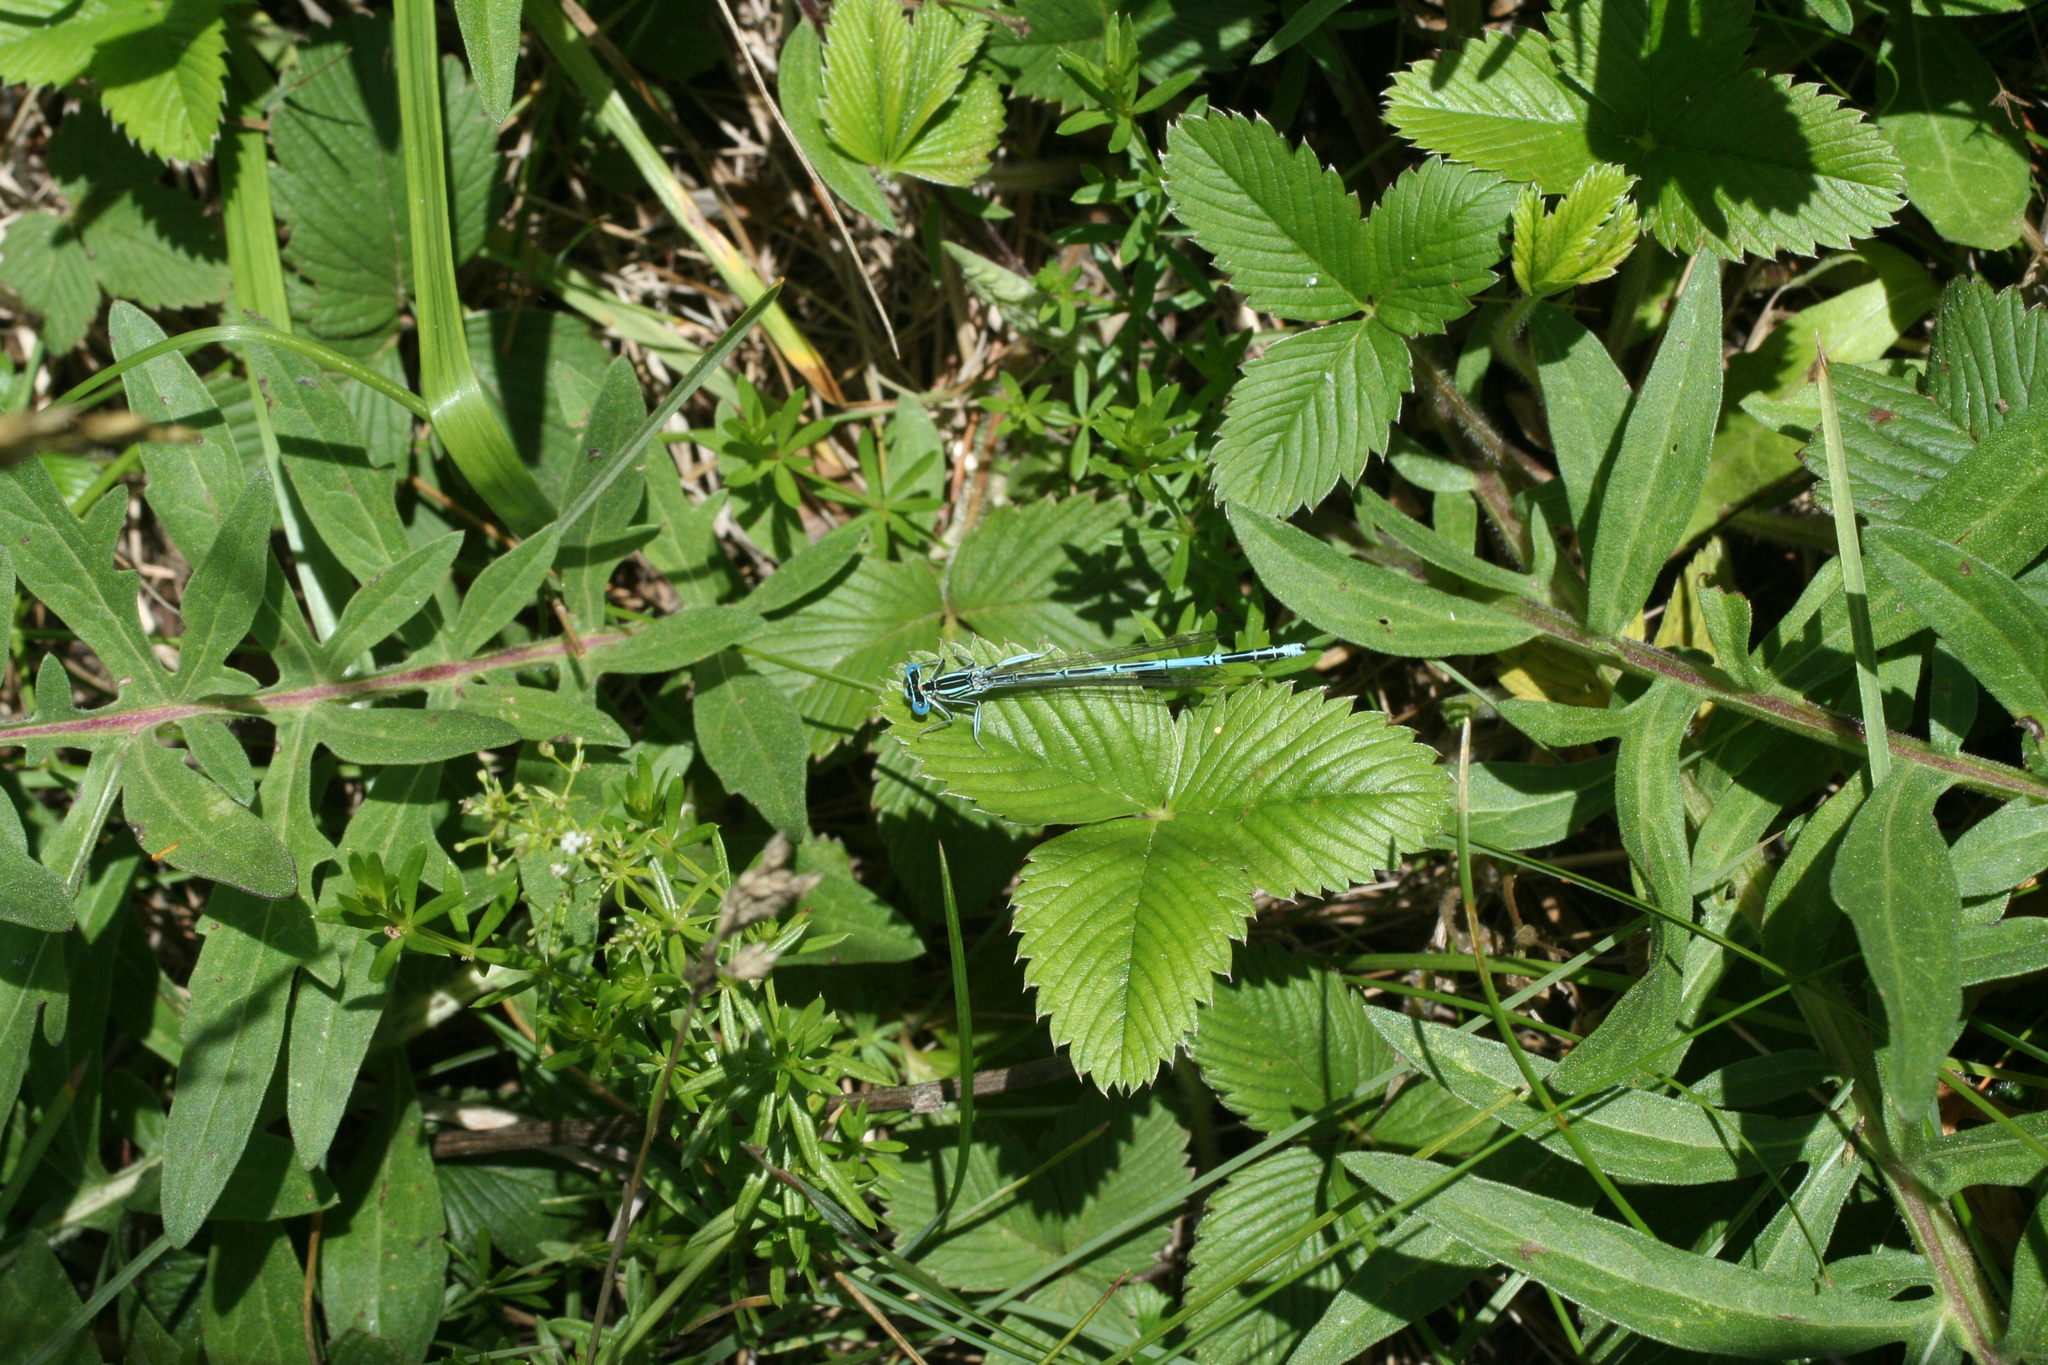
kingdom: Animalia
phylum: Arthropoda
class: Insecta
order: Odonata
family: Platycnemididae
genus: Platycnemis
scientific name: Platycnemis pennipes
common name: White-legged damselfly
